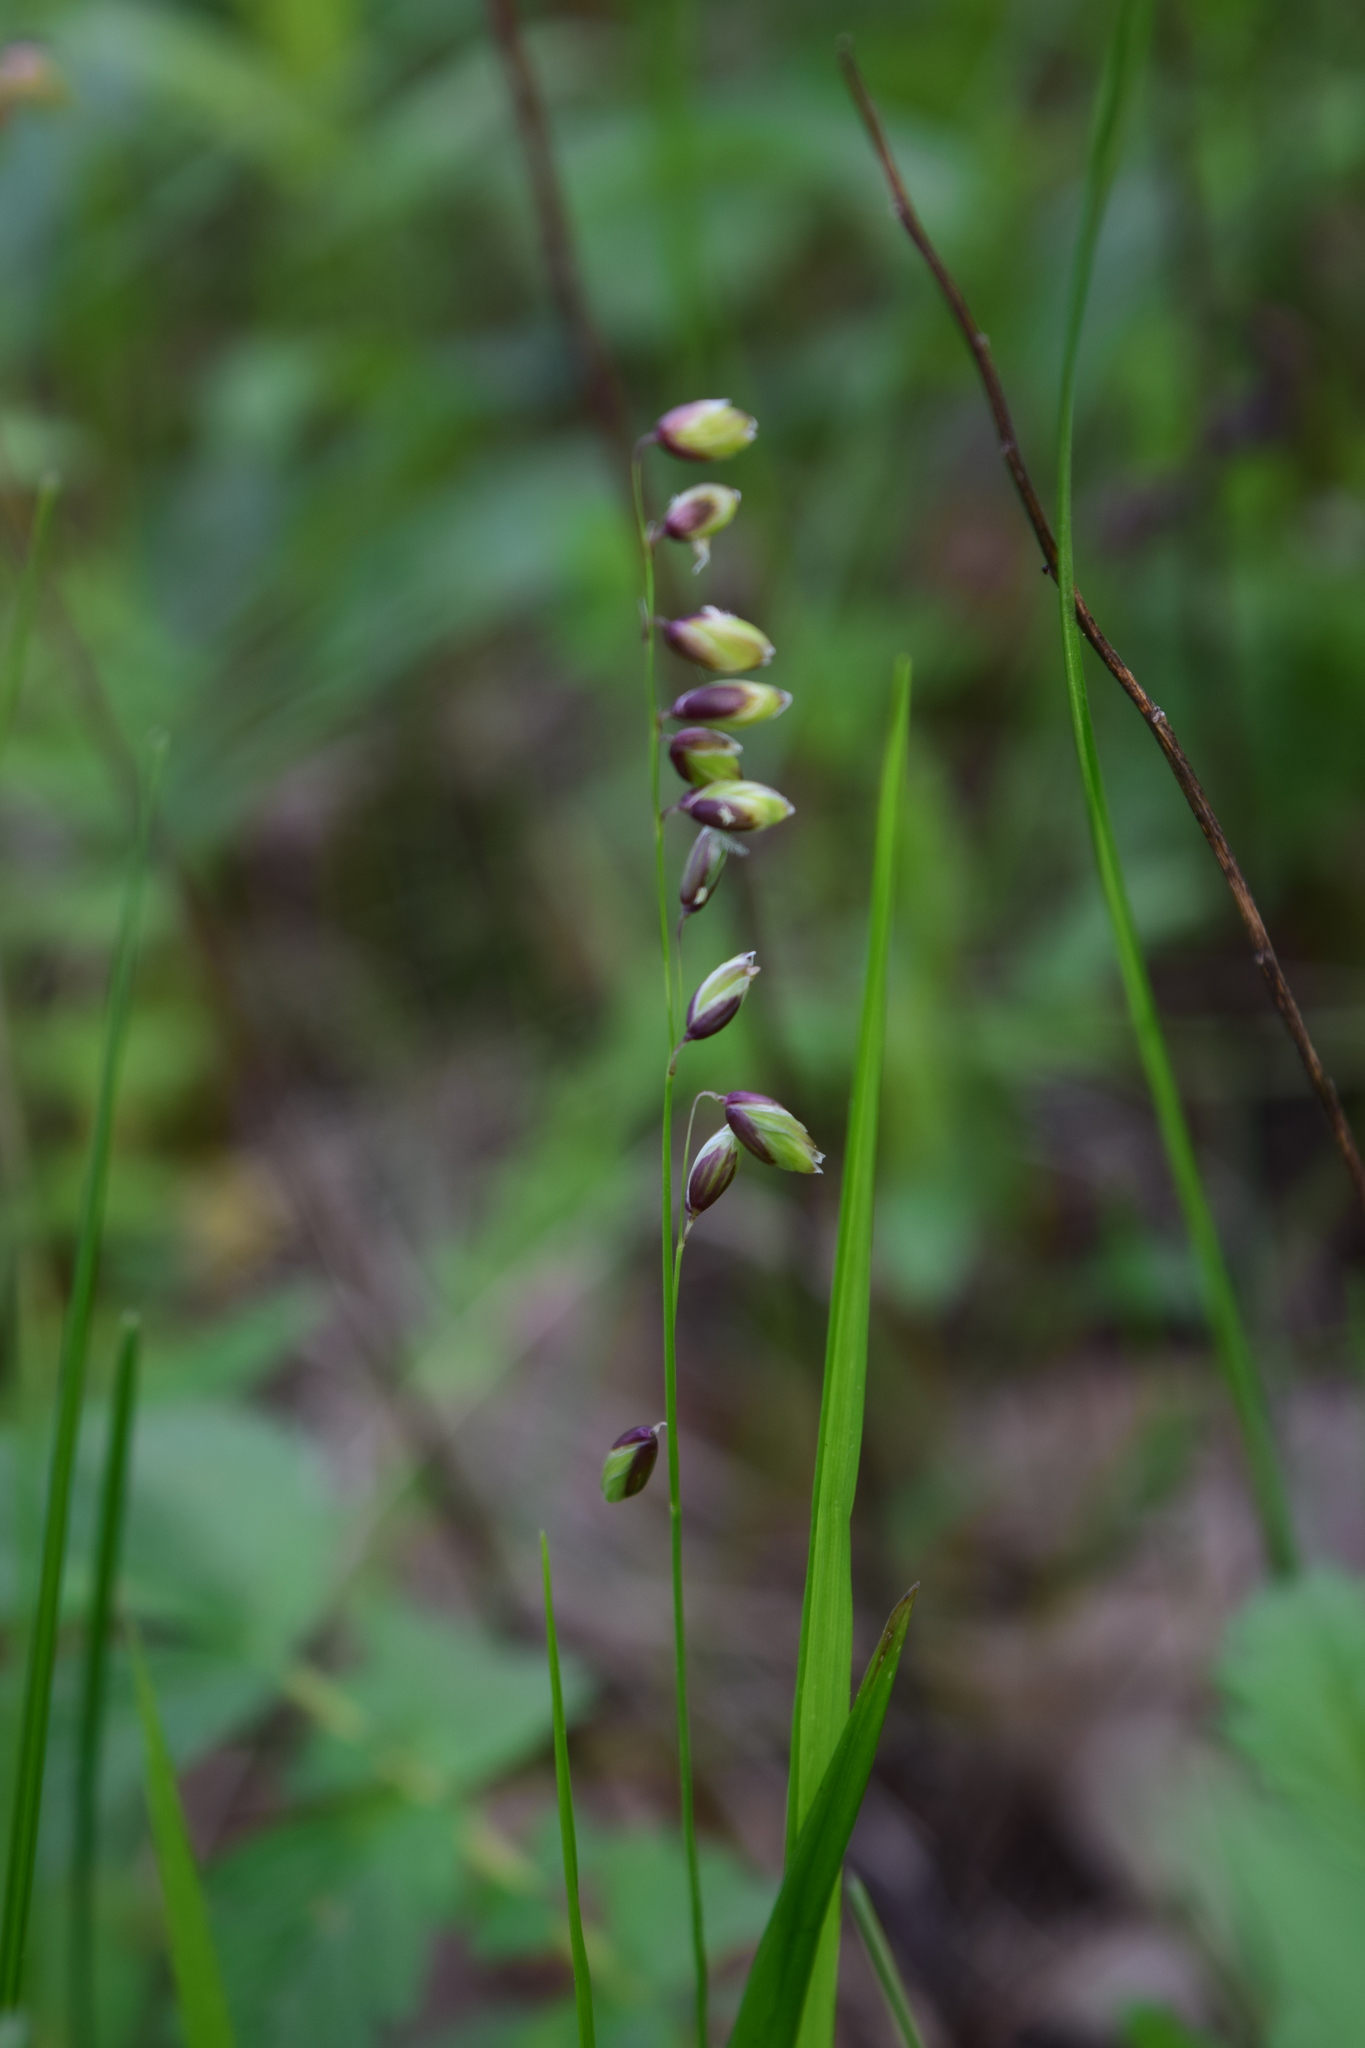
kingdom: Plantae
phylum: Tracheophyta
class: Liliopsida
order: Poales
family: Poaceae
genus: Melica
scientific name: Melica nutans
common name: Mountain melick
